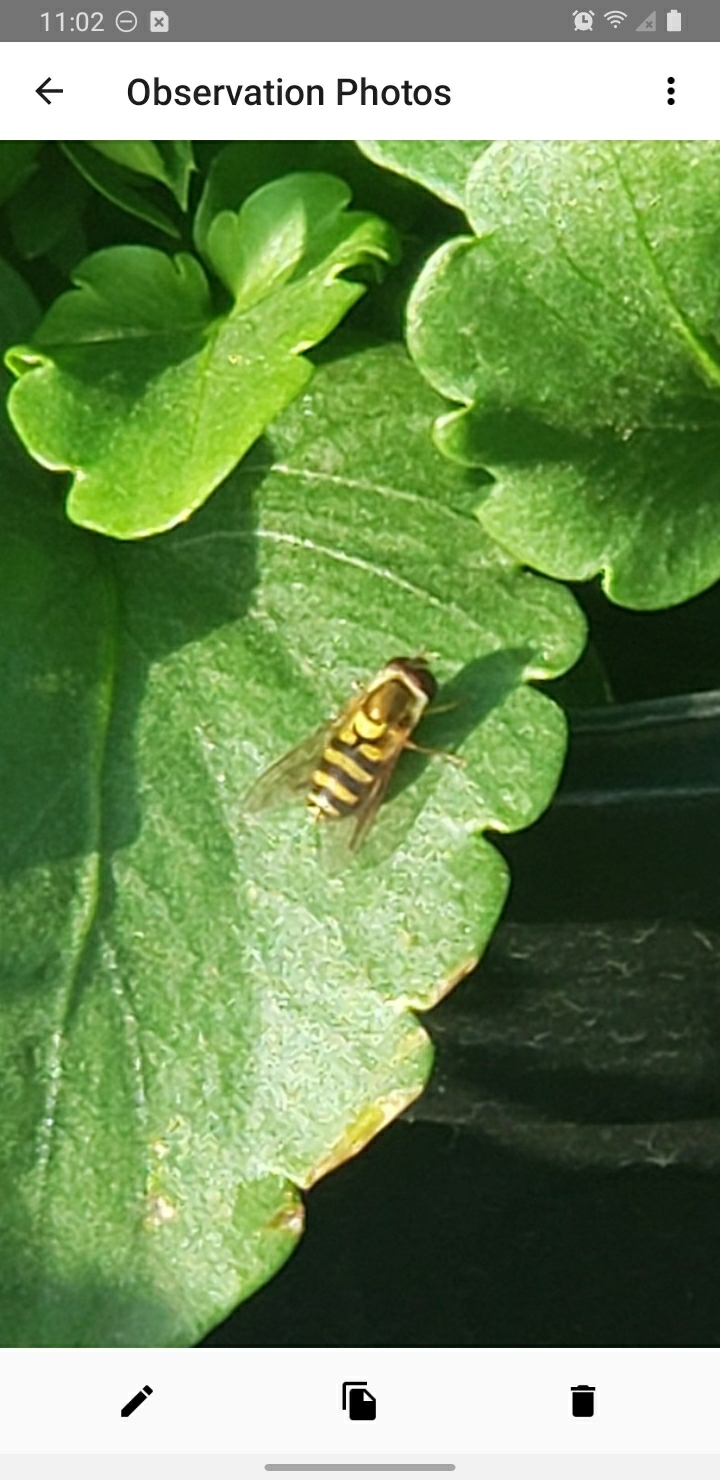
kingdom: Animalia
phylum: Arthropoda
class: Insecta
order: Diptera
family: Syrphidae
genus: Syrphus
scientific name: Syrphus
